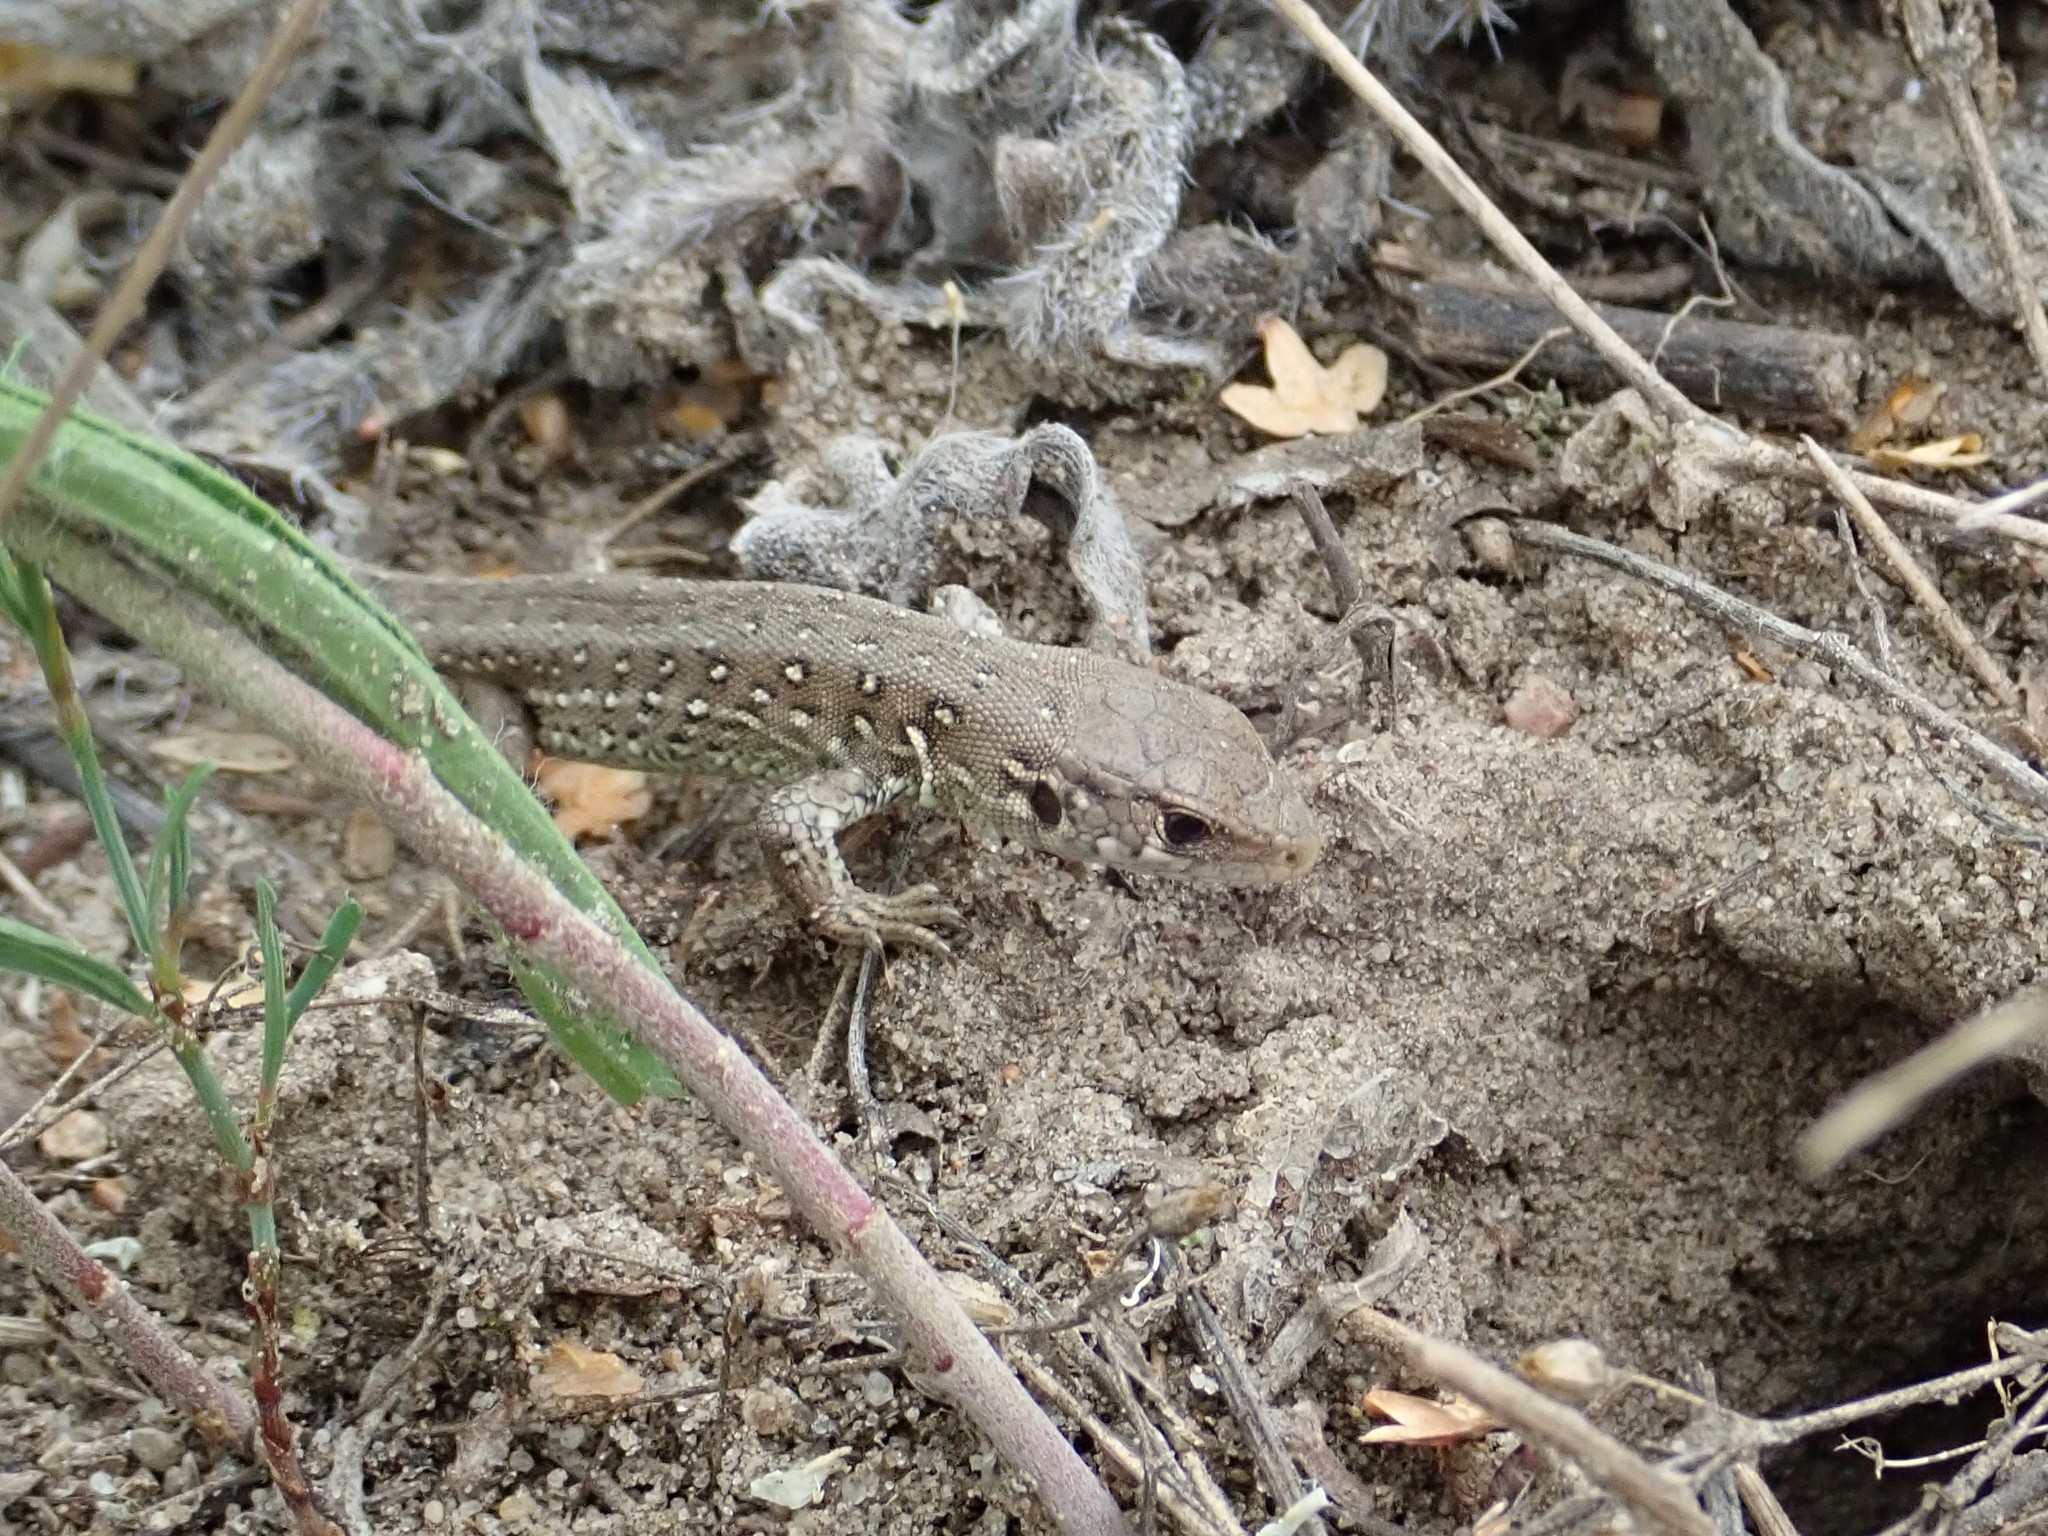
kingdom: Animalia
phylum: Chordata
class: Squamata
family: Lacertidae
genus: Lacerta
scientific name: Lacerta agilis
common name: Sand lizard
